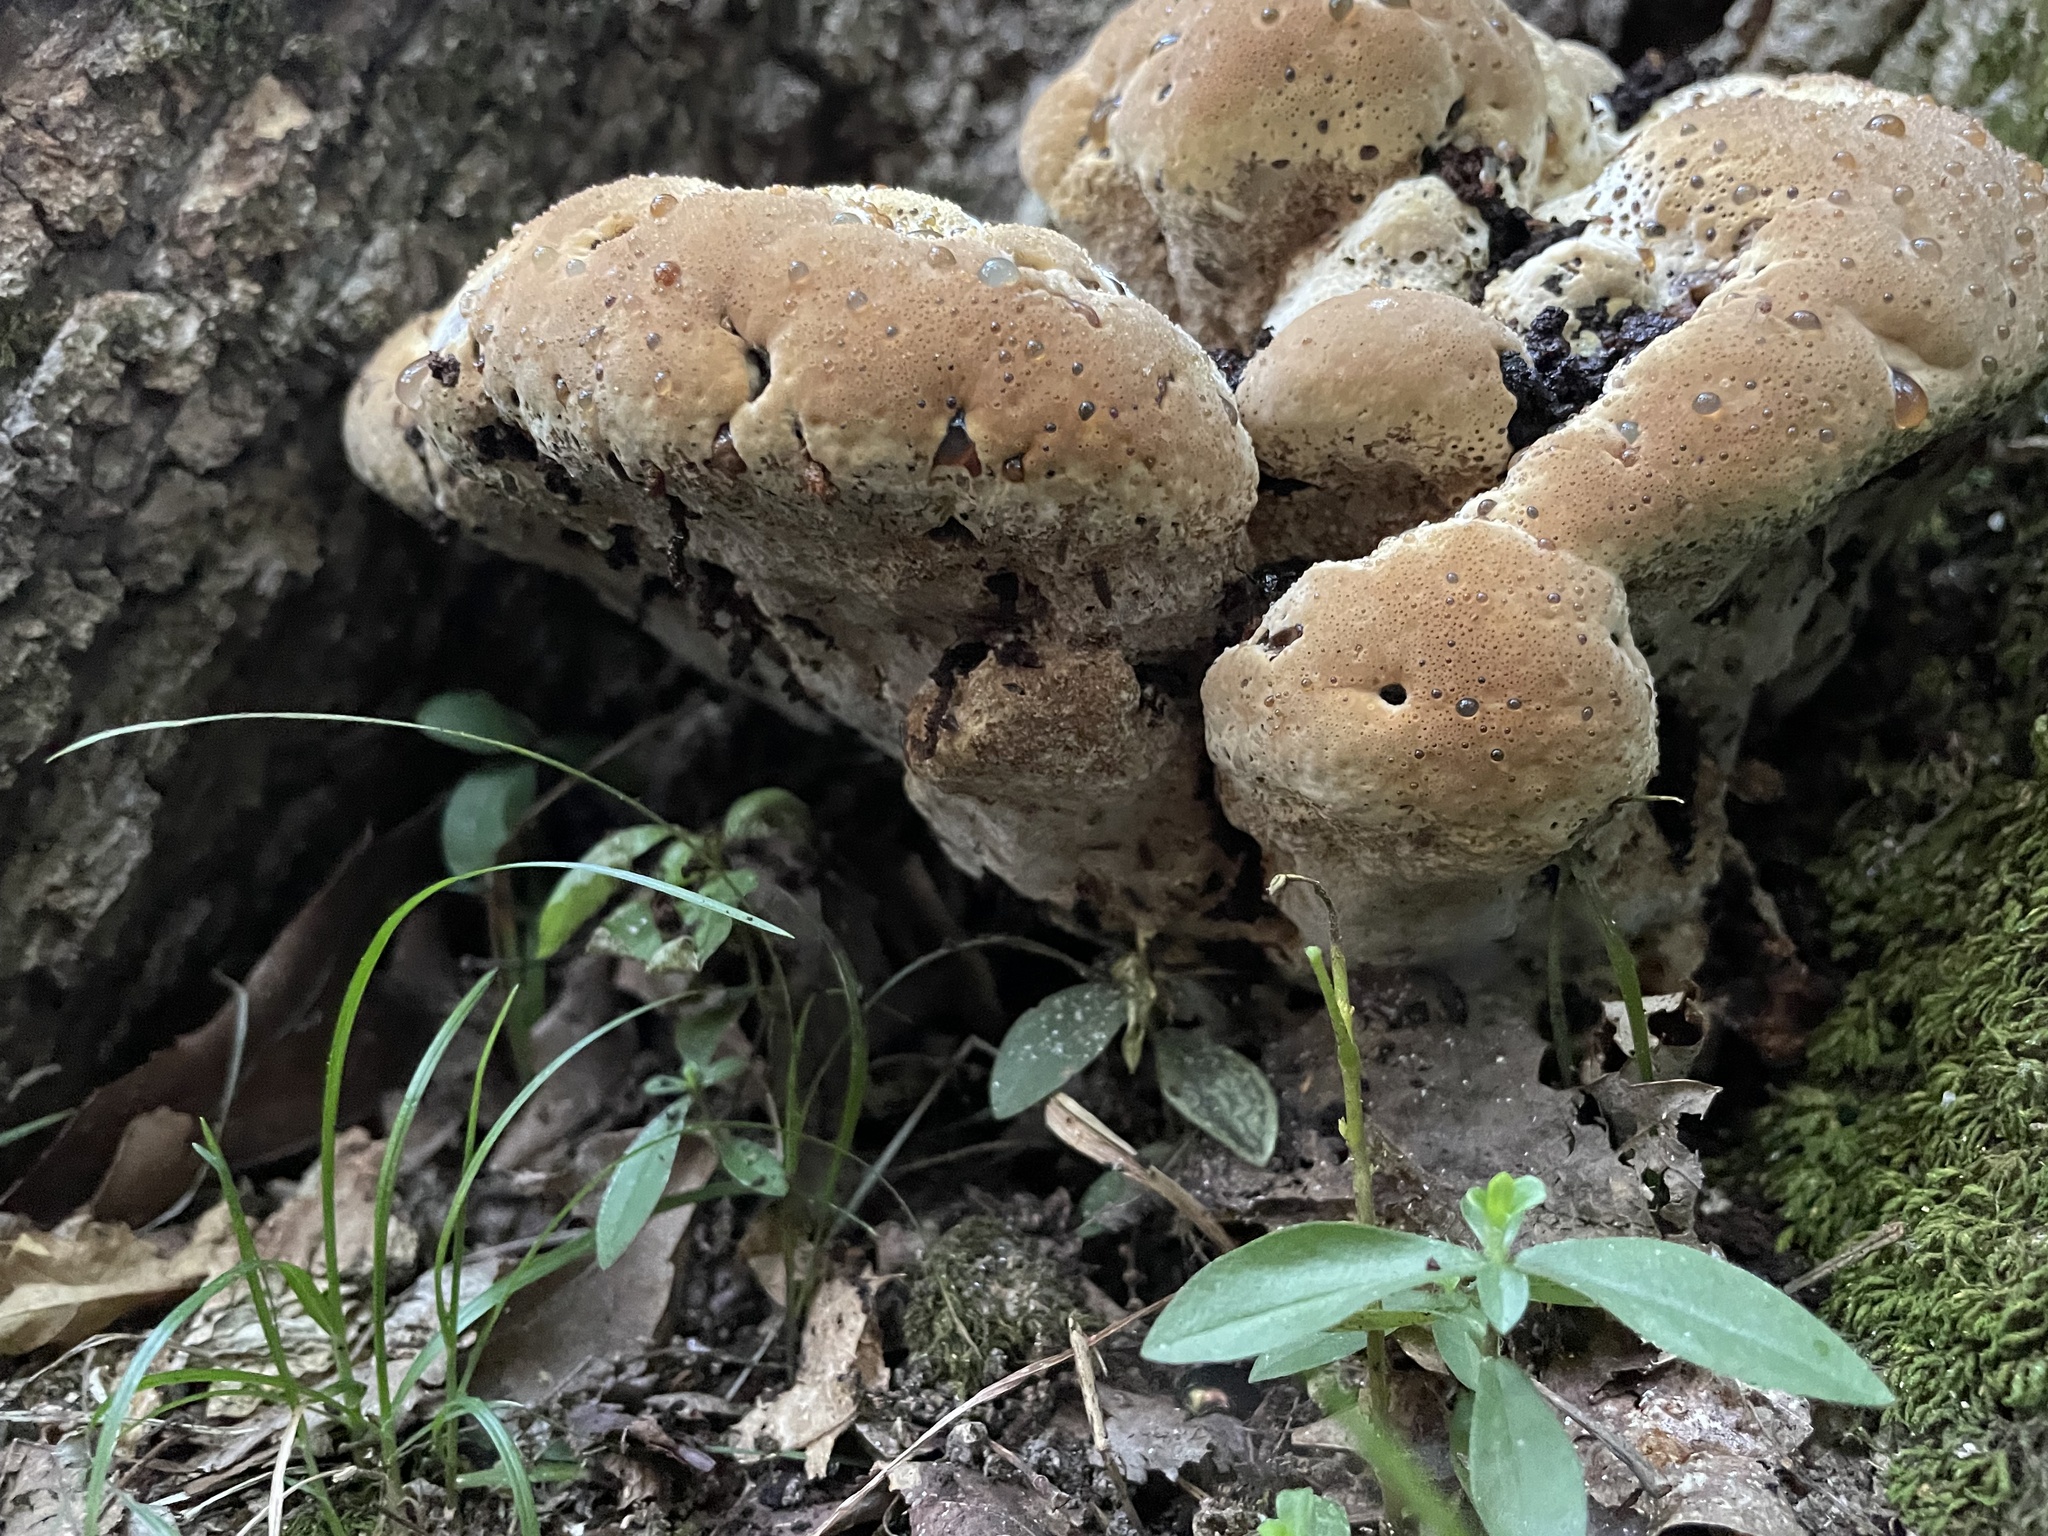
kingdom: Fungi
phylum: Basidiomycota
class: Agaricomycetes
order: Hymenochaetales
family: Hymenochaetaceae
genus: Pseudoinonotus
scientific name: Pseudoinonotus dryadeus
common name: Oak bracket
